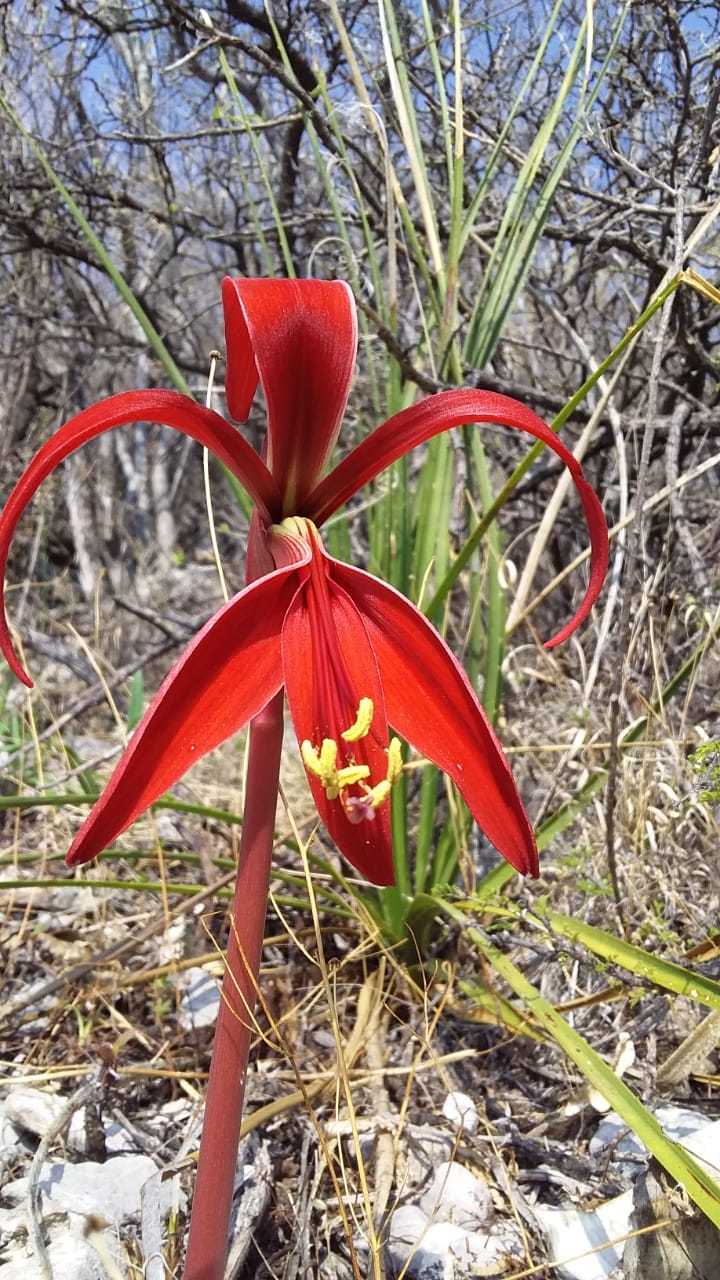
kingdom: Plantae
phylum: Tracheophyta
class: Liliopsida
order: Asparagales
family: Amaryllidaceae
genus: Sprekelia
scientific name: Sprekelia formosissima
